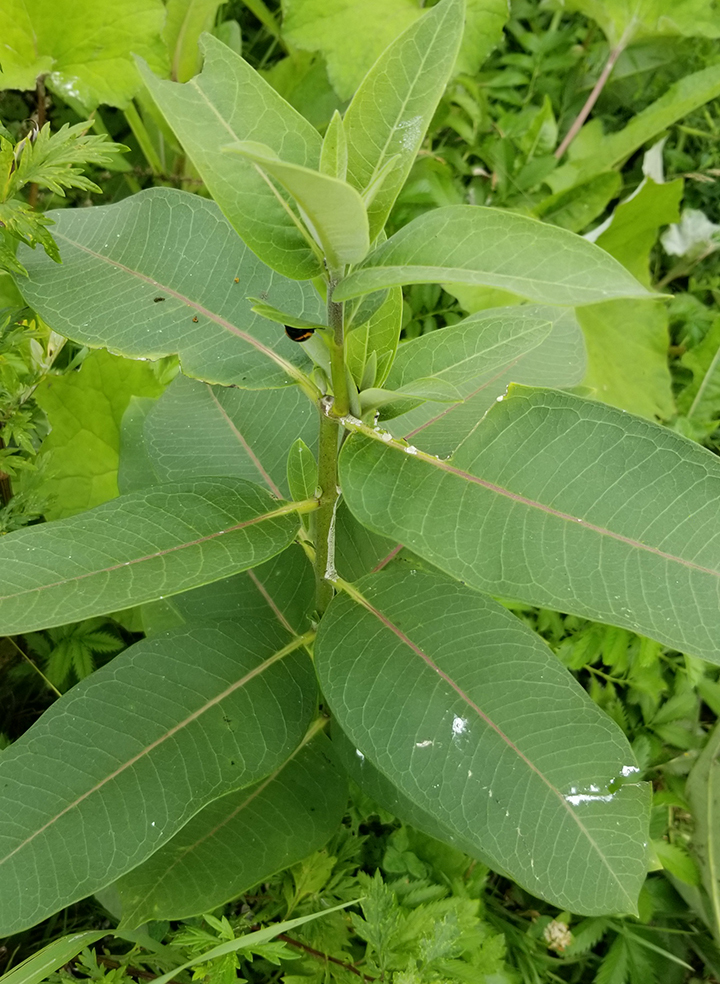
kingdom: Plantae
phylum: Tracheophyta
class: Magnoliopsida
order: Gentianales
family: Apocynaceae
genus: Asclepias
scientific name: Asclepias syriaca
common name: Common milkweed
